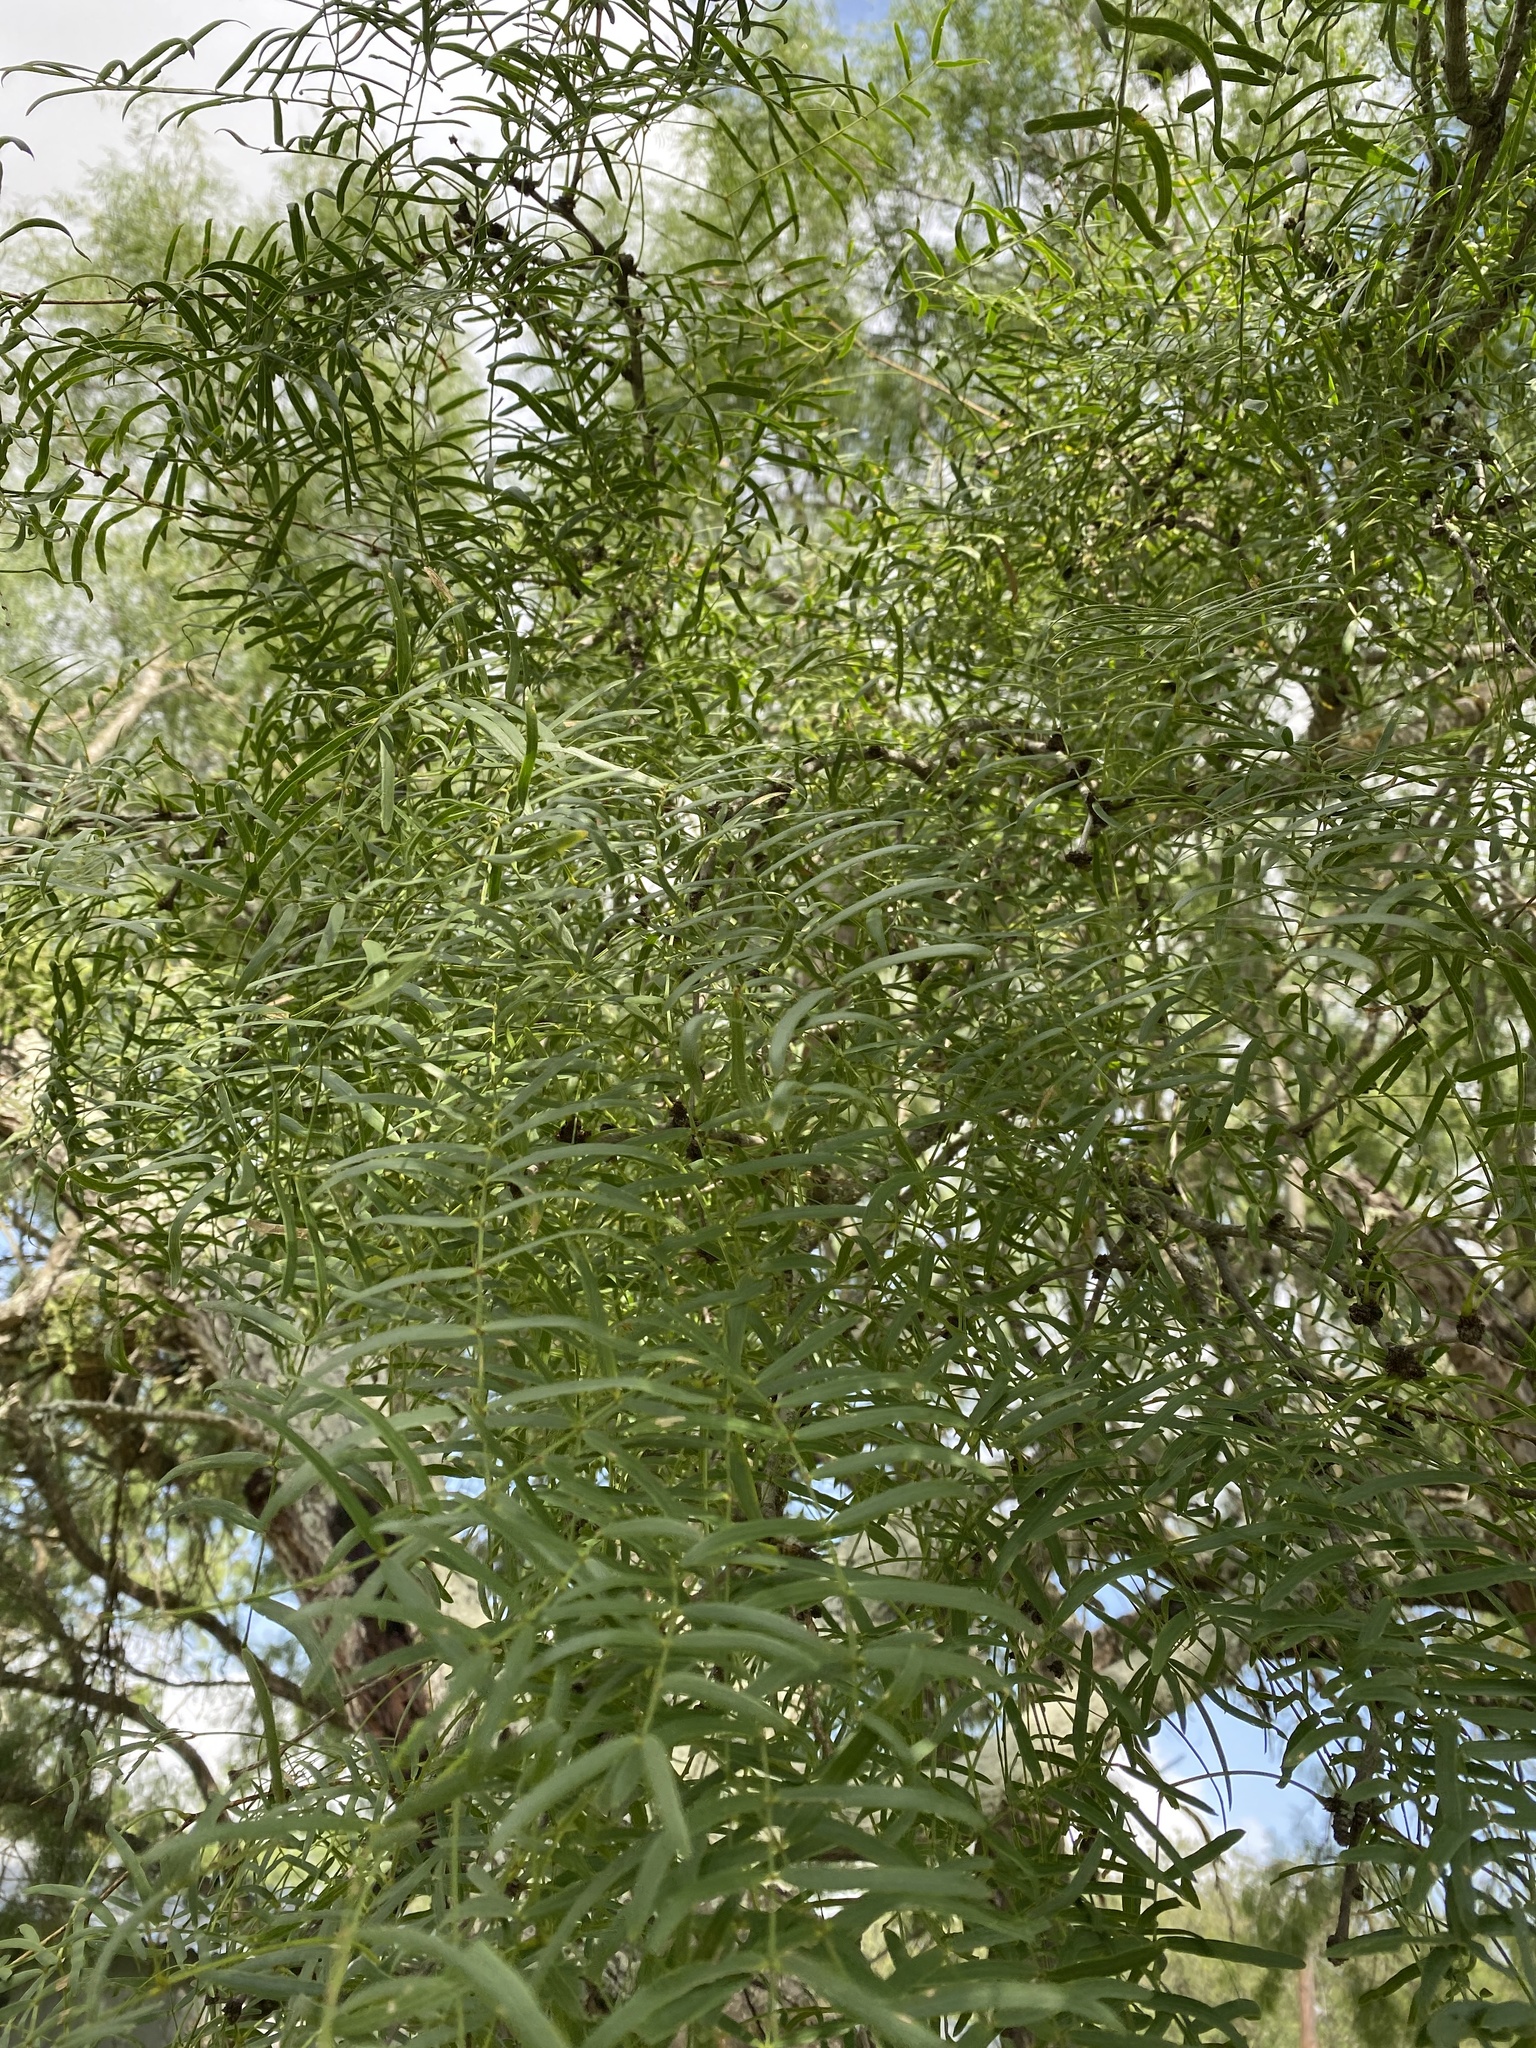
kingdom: Plantae
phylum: Tracheophyta
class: Magnoliopsida
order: Fabales
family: Fabaceae
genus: Prosopis
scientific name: Prosopis glandulosa
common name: Honey mesquite
